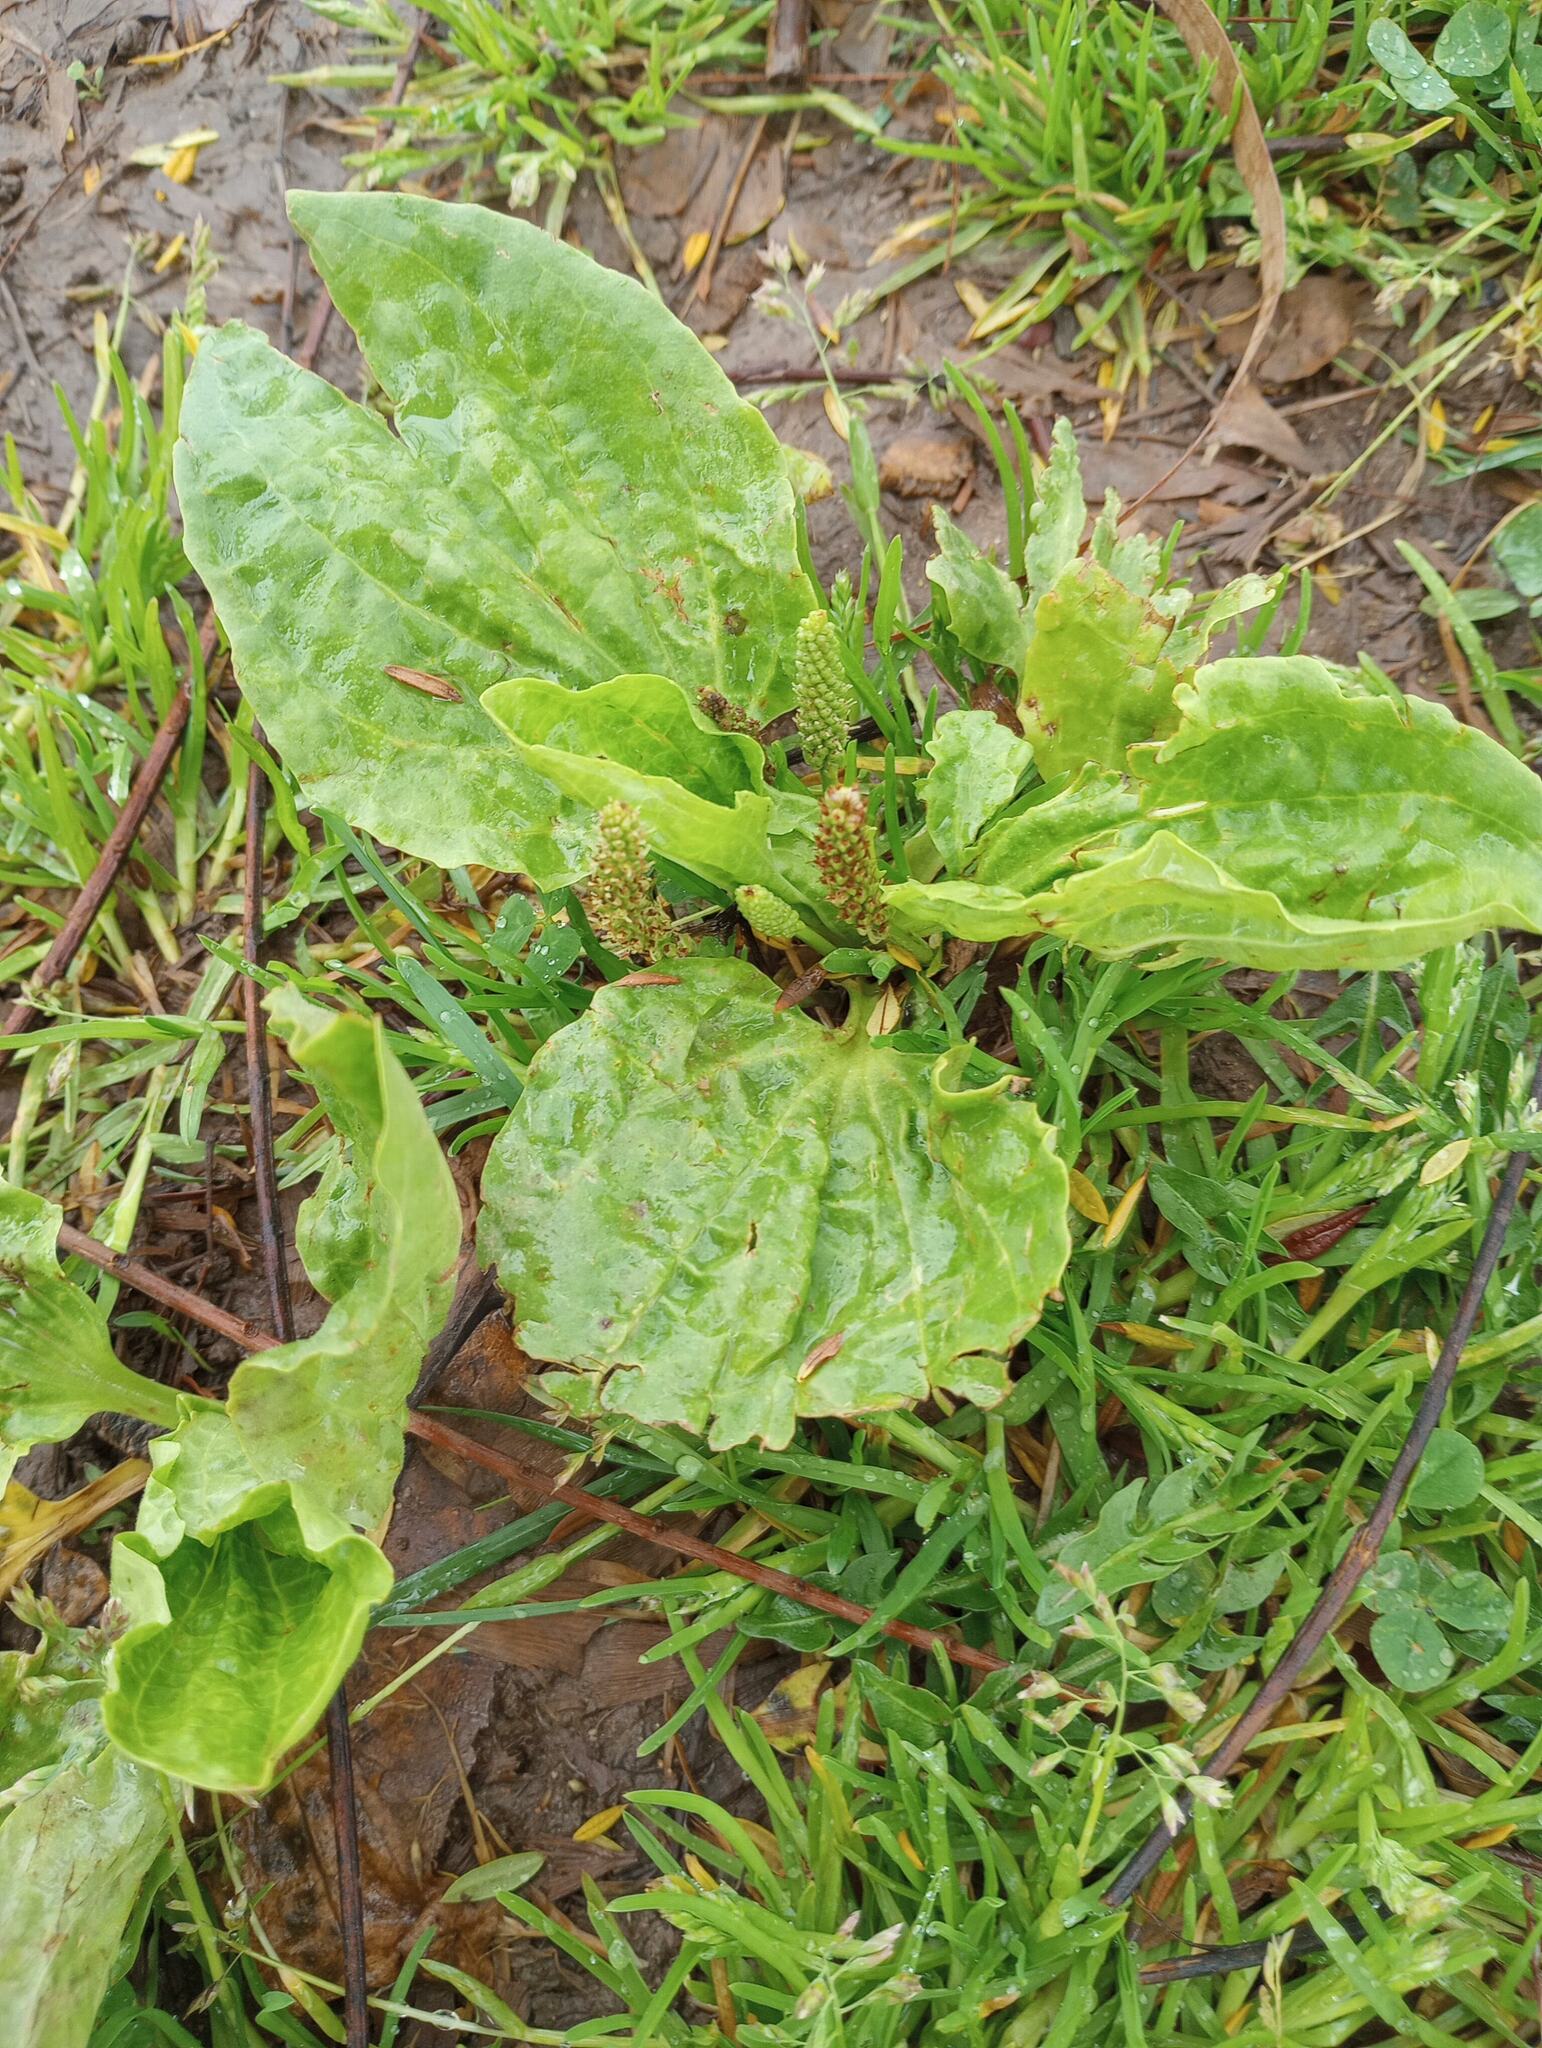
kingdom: Plantae
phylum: Tracheophyta
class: Magnoliopsida
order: Lamiales
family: Plantaginaceae
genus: Plantago
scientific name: Plantago major
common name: Common plantain
